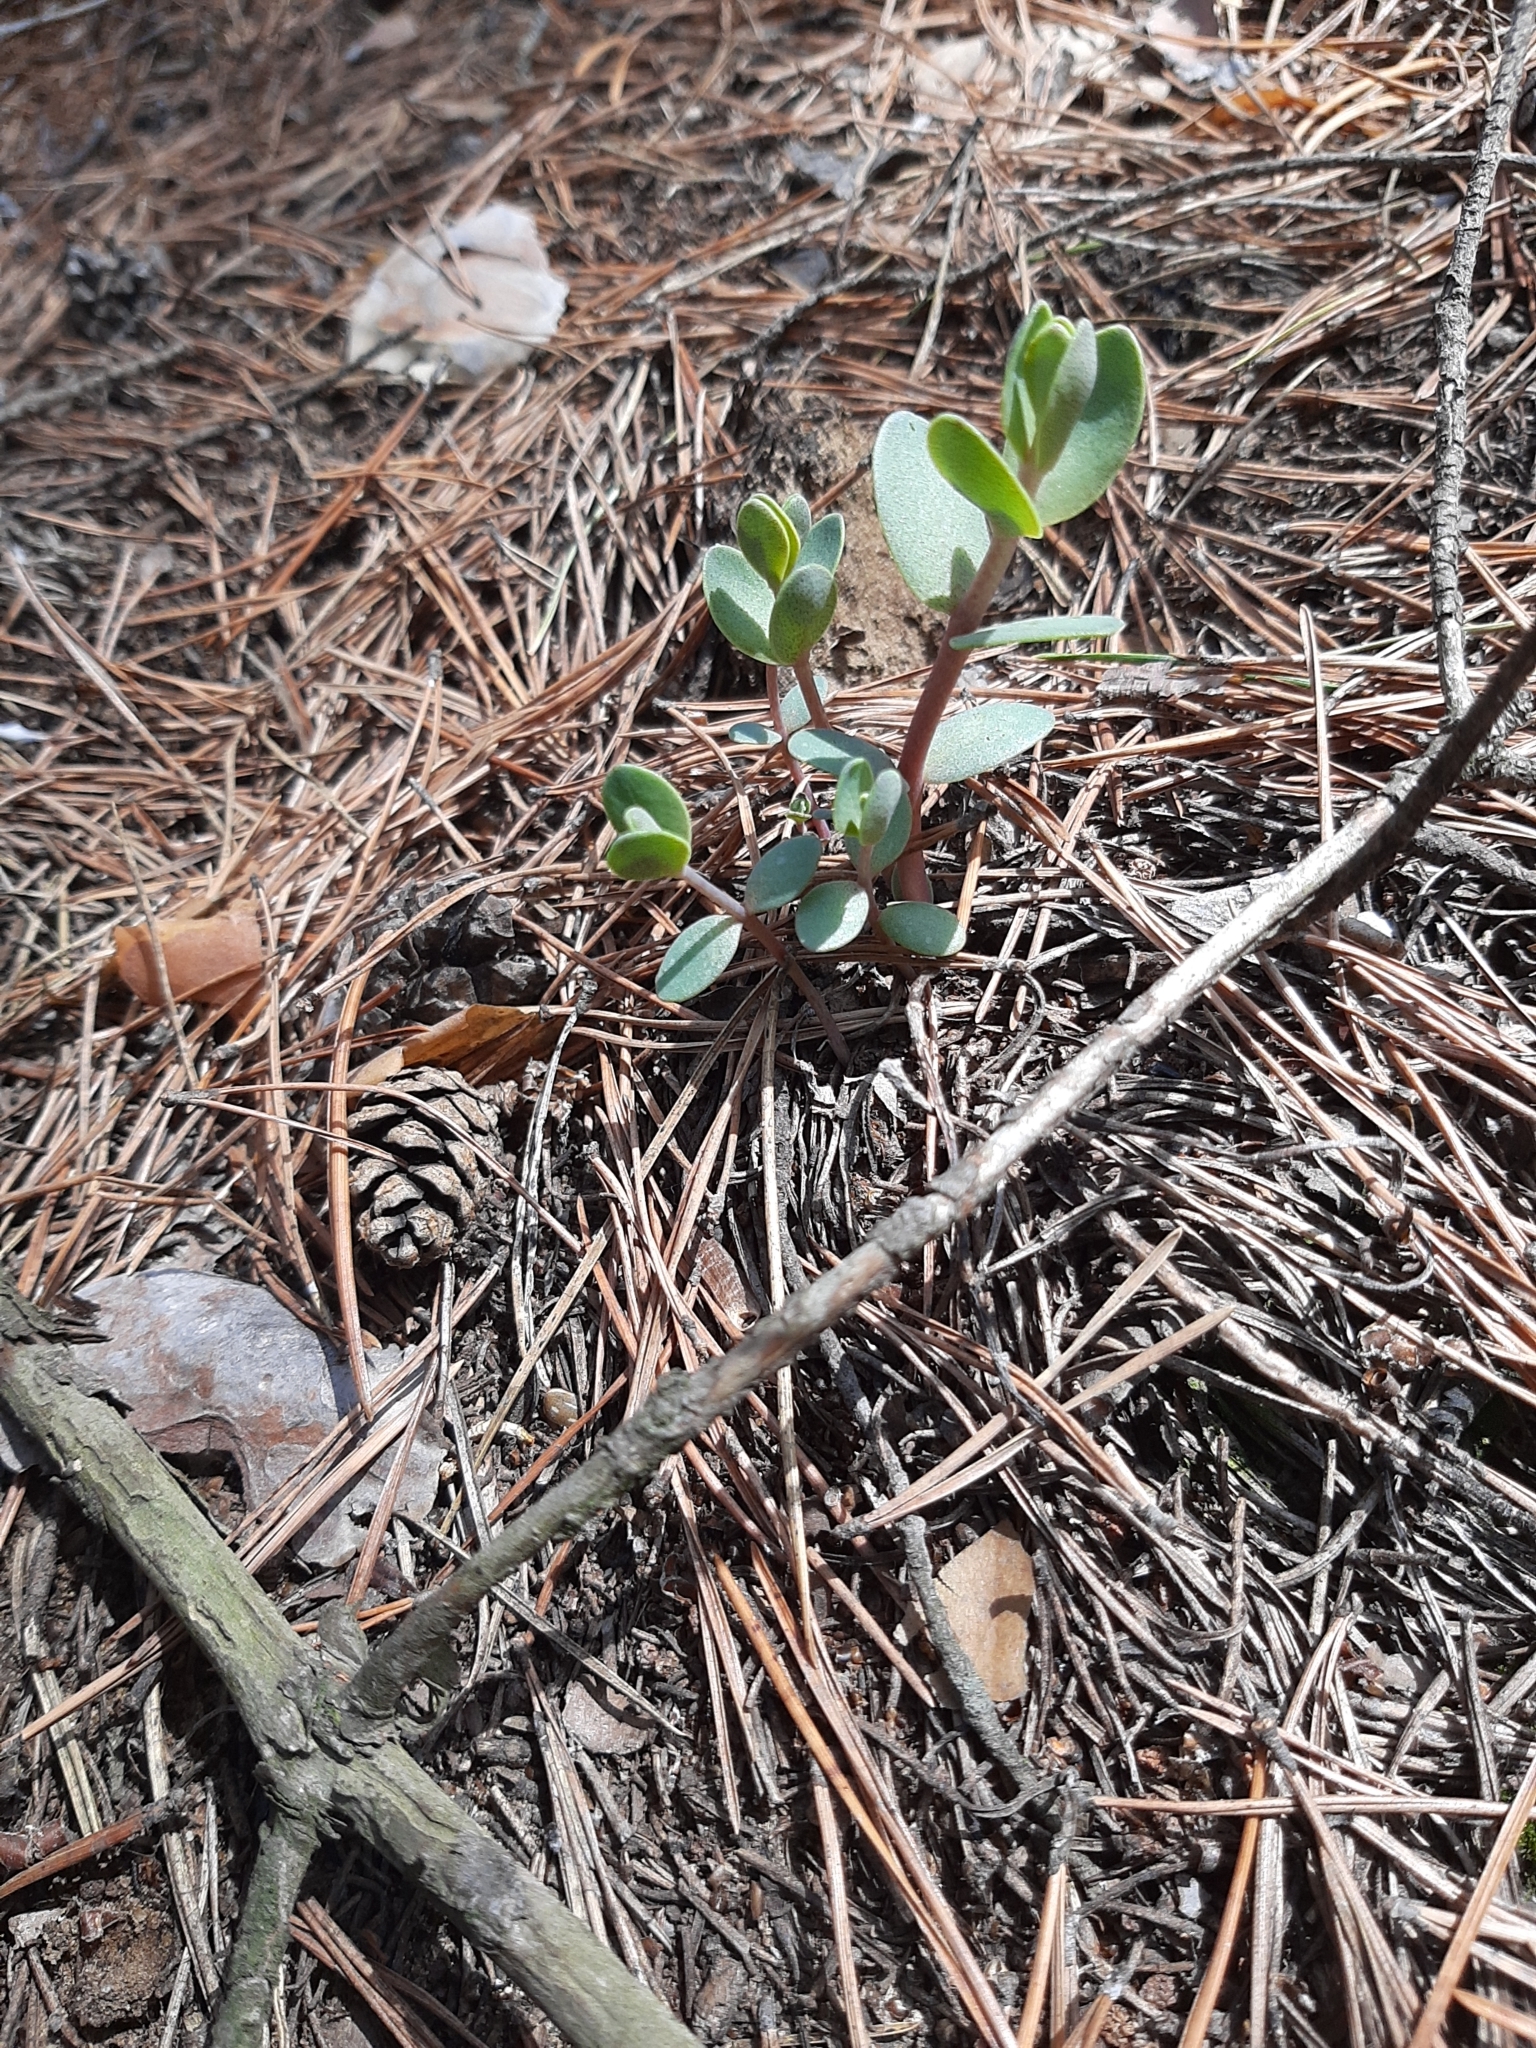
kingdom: Plantae
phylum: Tracheophyta
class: Magnoliopsida
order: Saxifragales
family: Crassulaceae
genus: Hylotelephium
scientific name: Hylotelephium maximum
